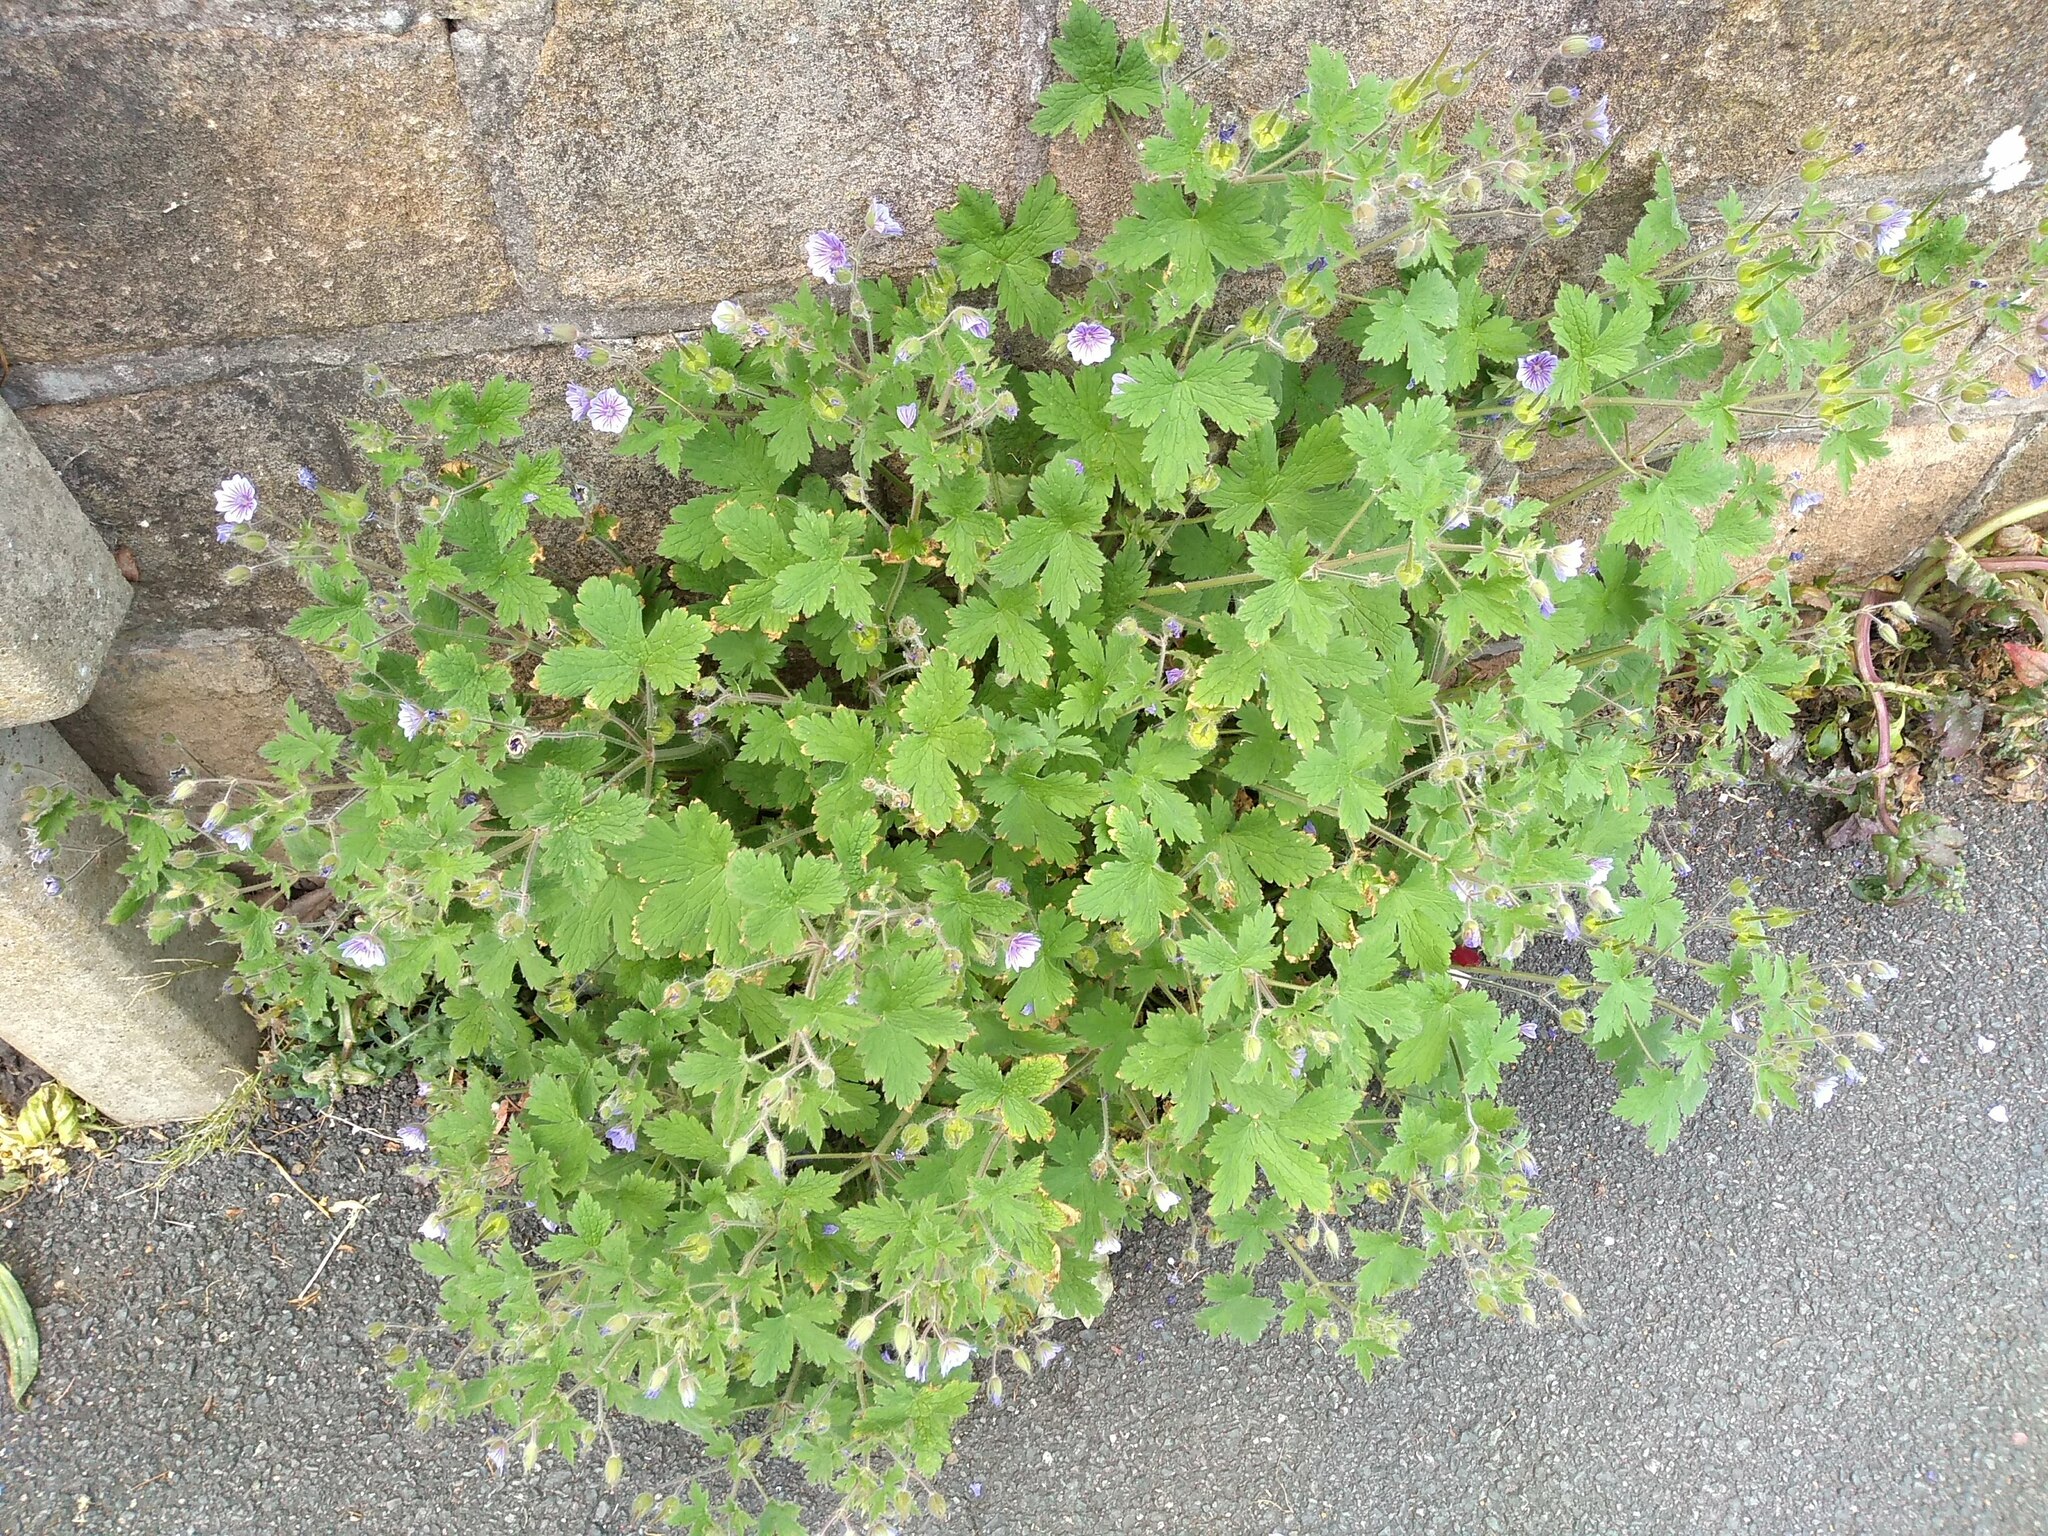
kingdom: Plantae
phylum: Tracheophyta
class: Magnoliopsida
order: Geraniales
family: Geraniaceae
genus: Geranium
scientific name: Geranium bohemicum
